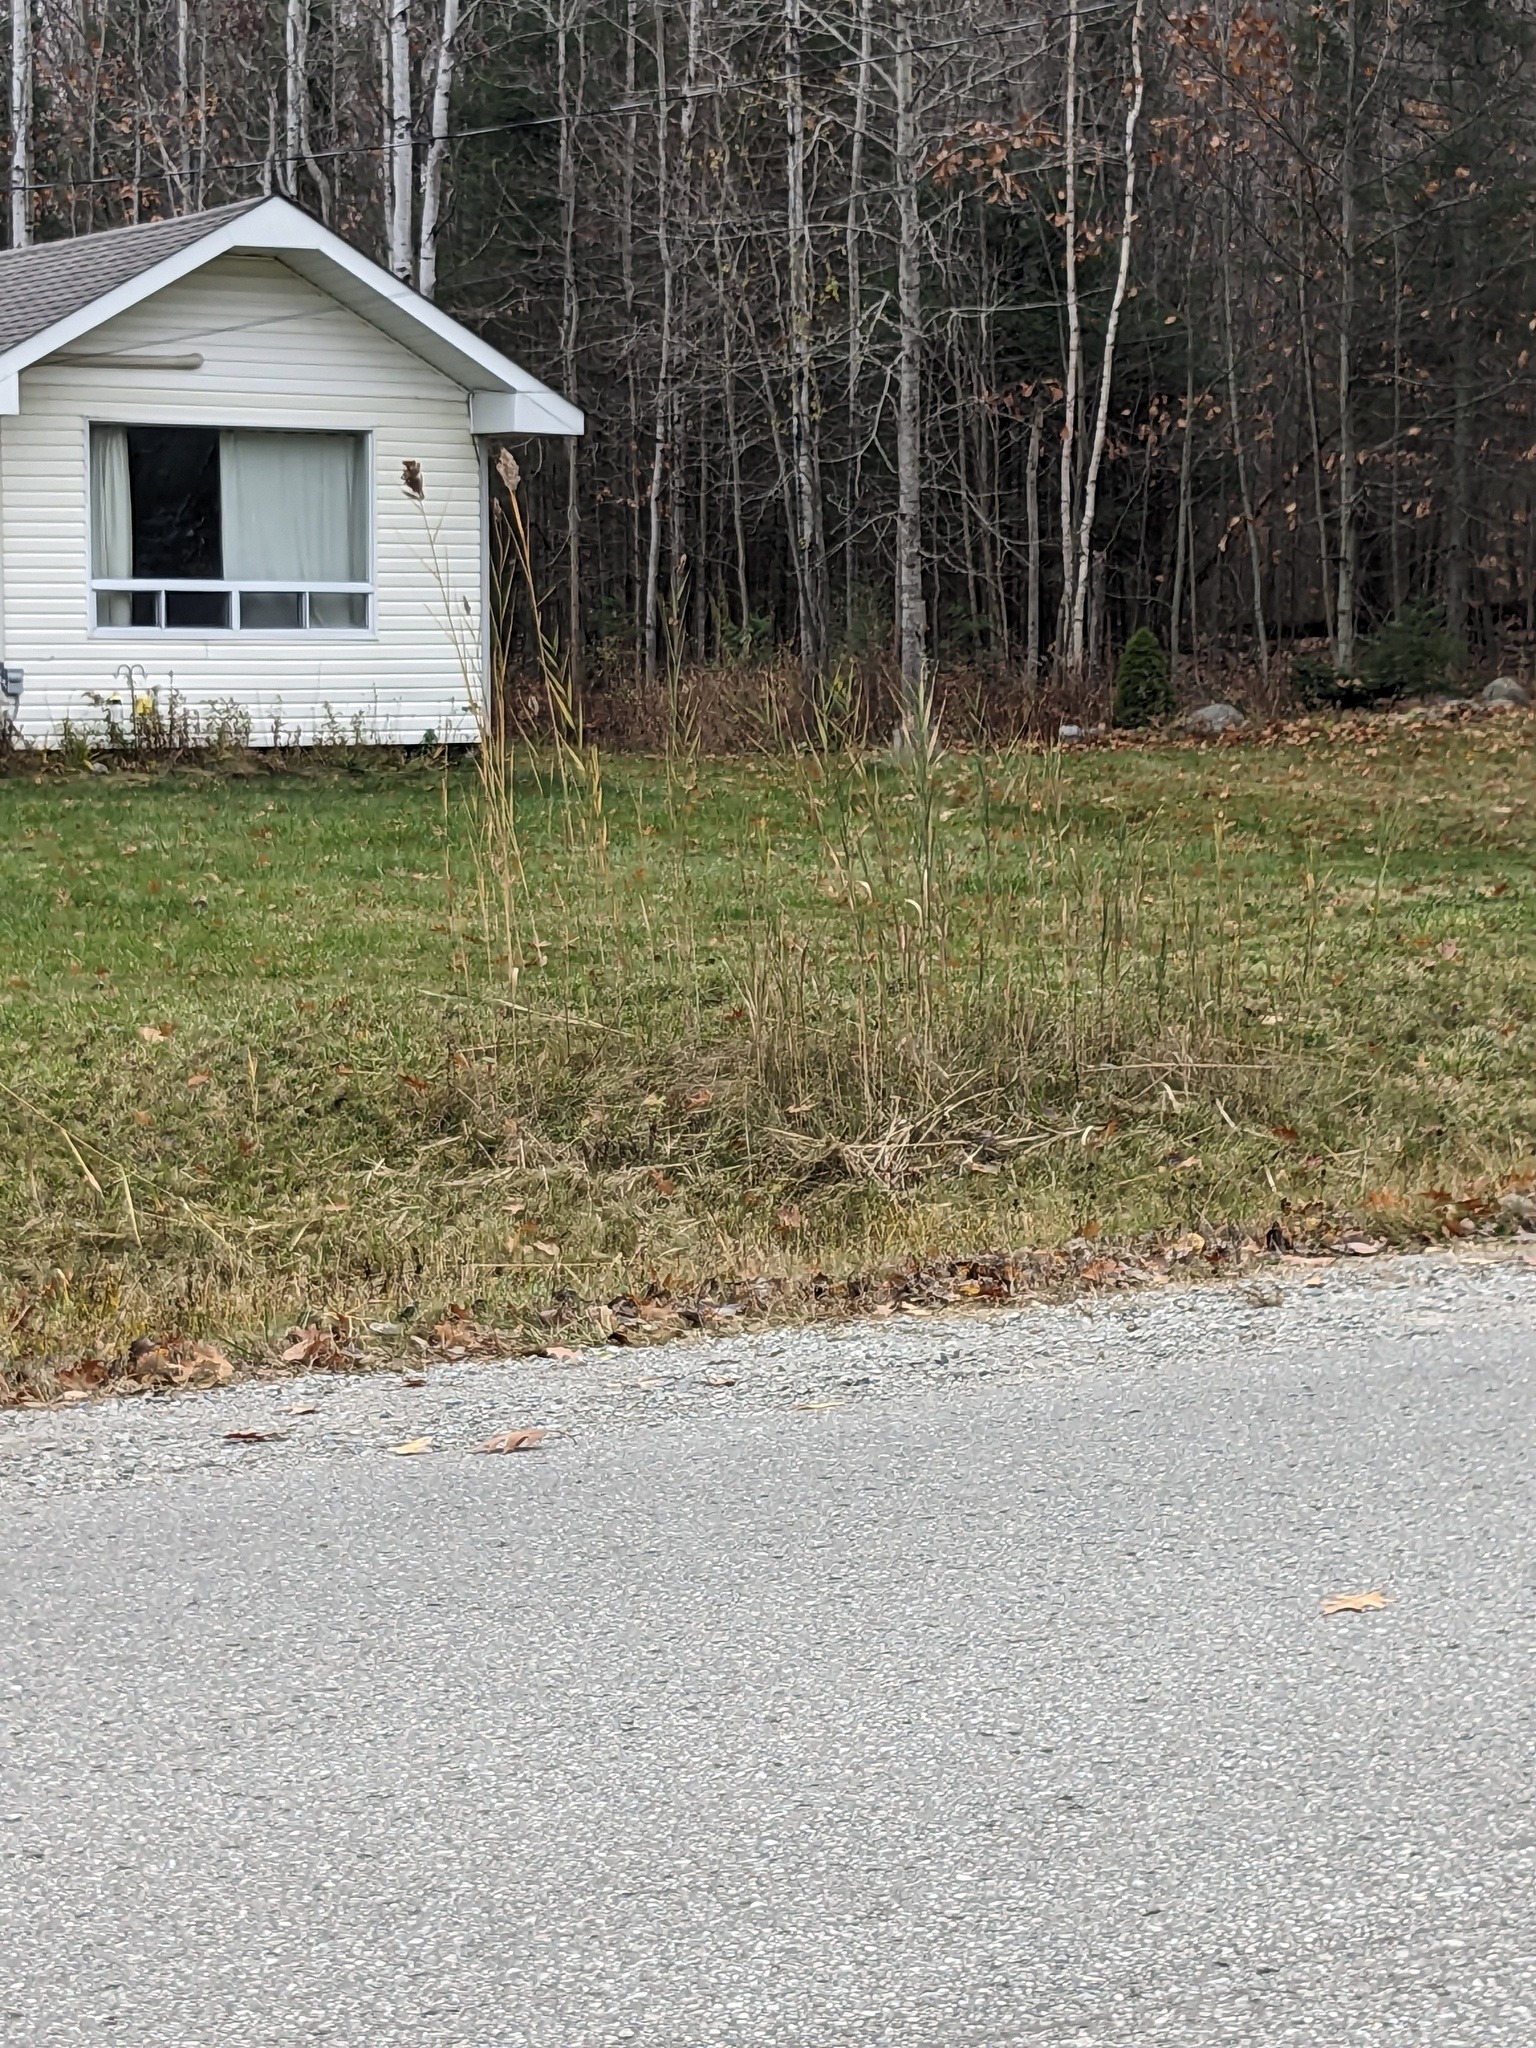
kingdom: Plantae
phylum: Tracheophyta
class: Liliopsida
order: Poales
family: Poaceae
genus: Phragmites
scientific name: Phragmites australis
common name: Common reed
